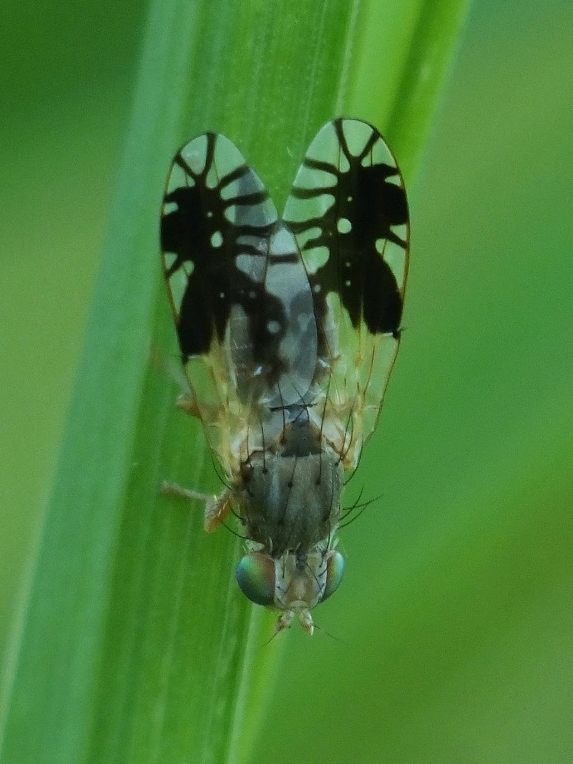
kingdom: Animalia
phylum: Arthropoda
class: Insecta
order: Diptera
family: Tephritidae
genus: Tephritis
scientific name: Tephritis hurvitzi
